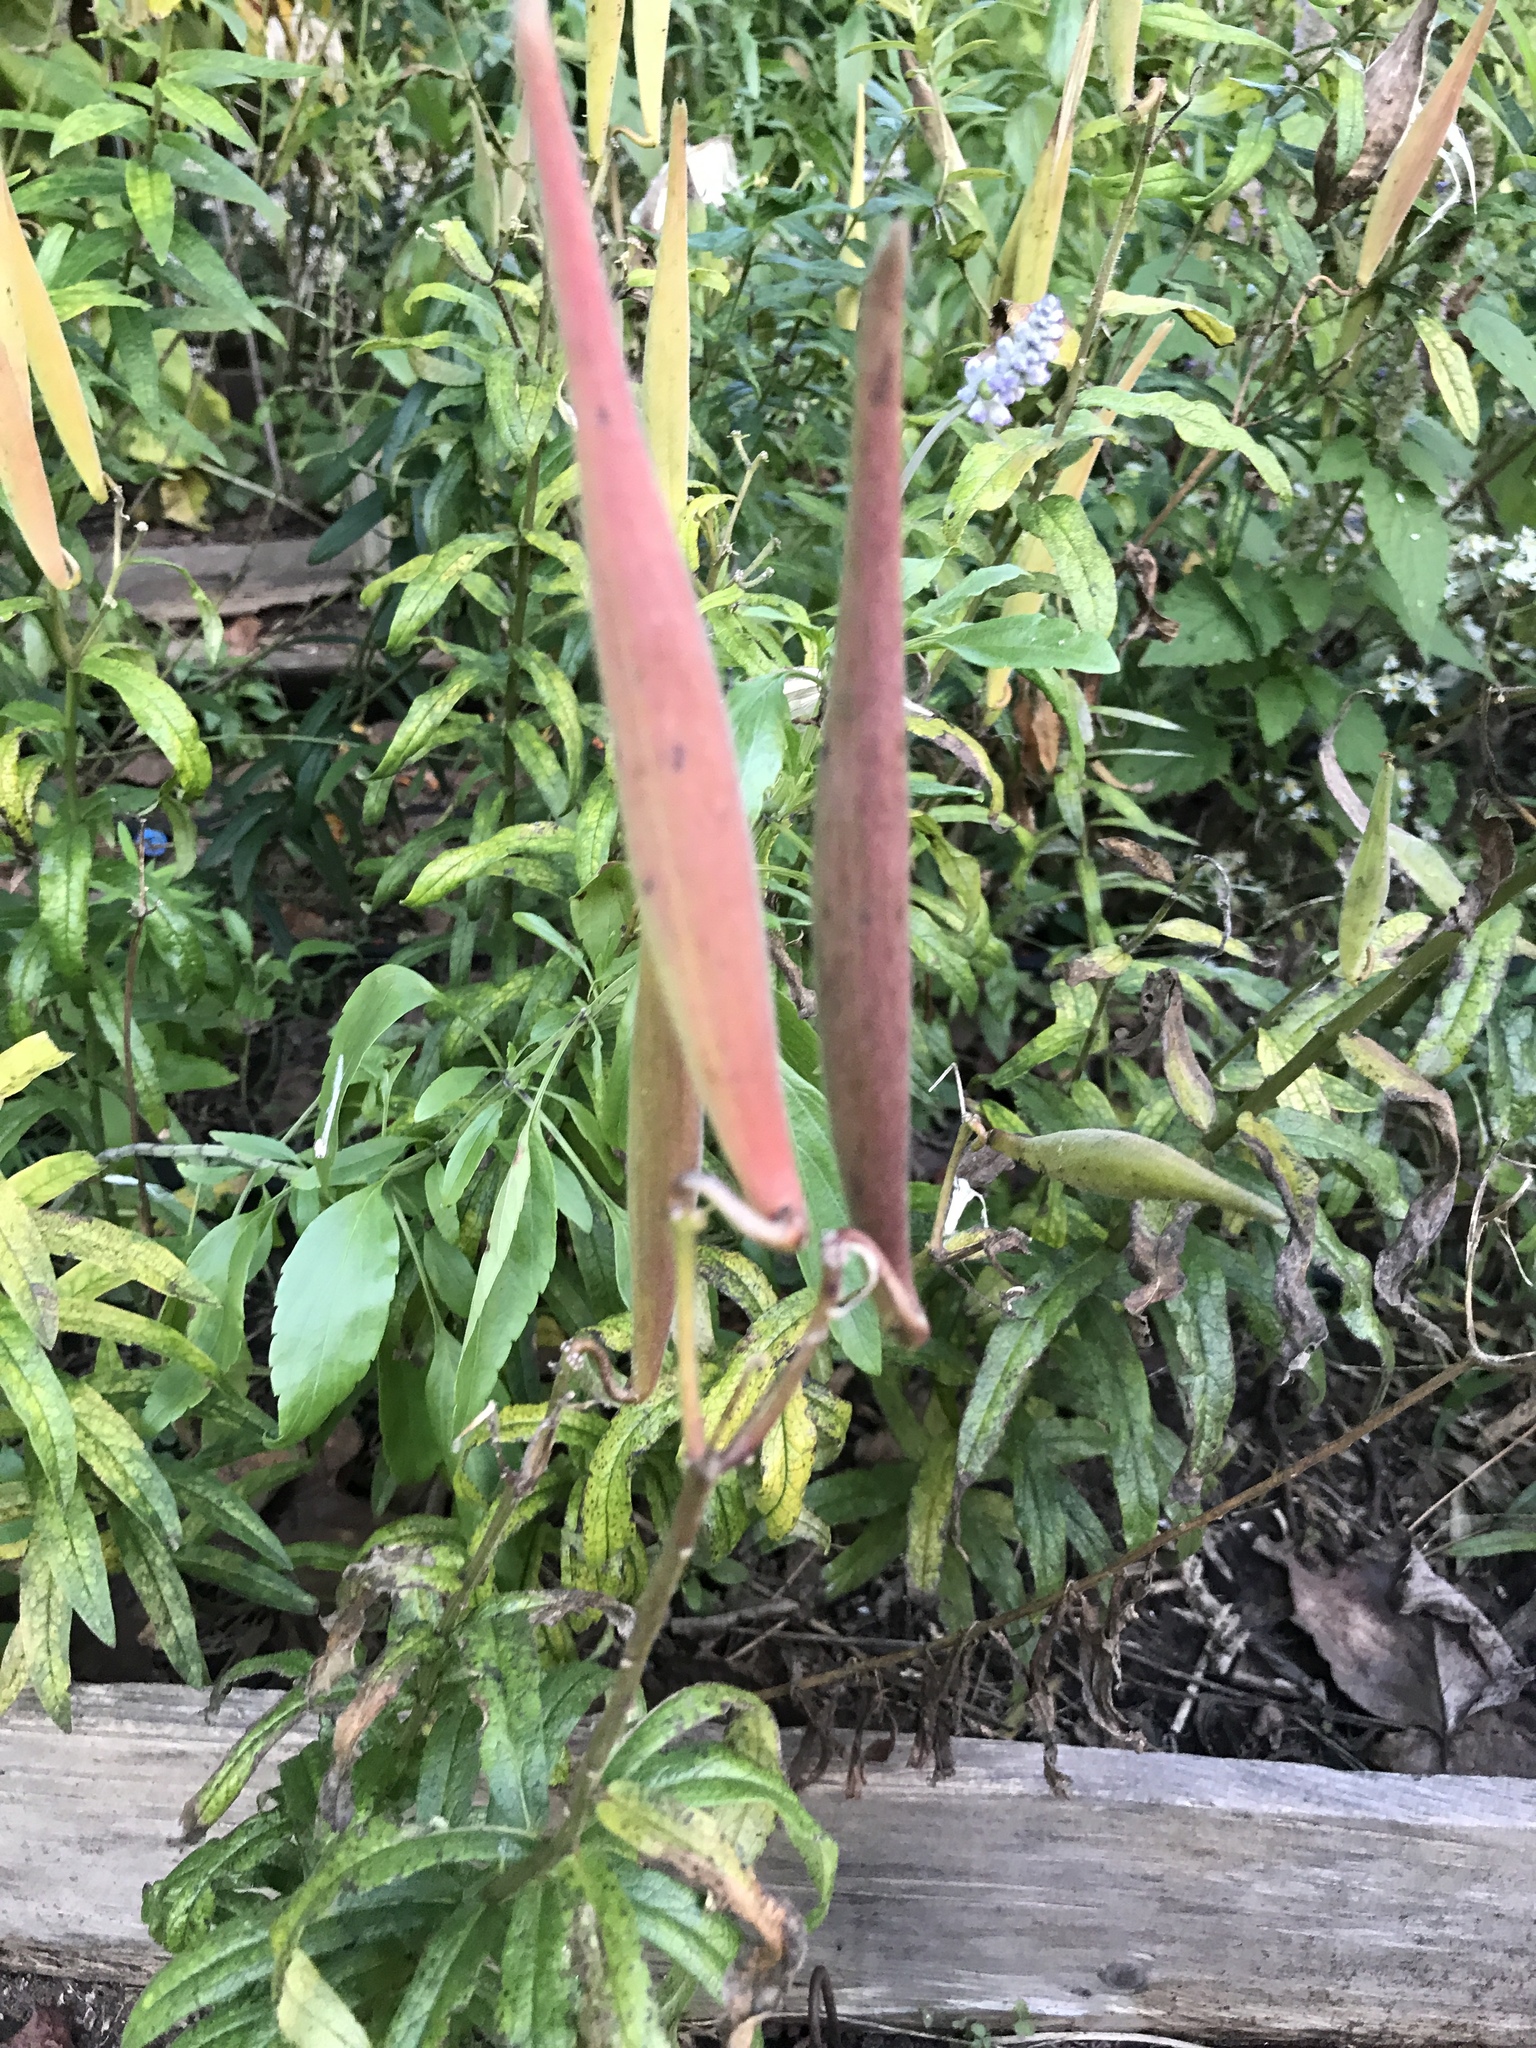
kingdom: Plantae
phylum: Tracheophyta
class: Magnoliopsida
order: Gentianales
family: Apocynaceae
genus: Asclepias
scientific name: Asclepias tuberosa
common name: Butterfly milkweed
